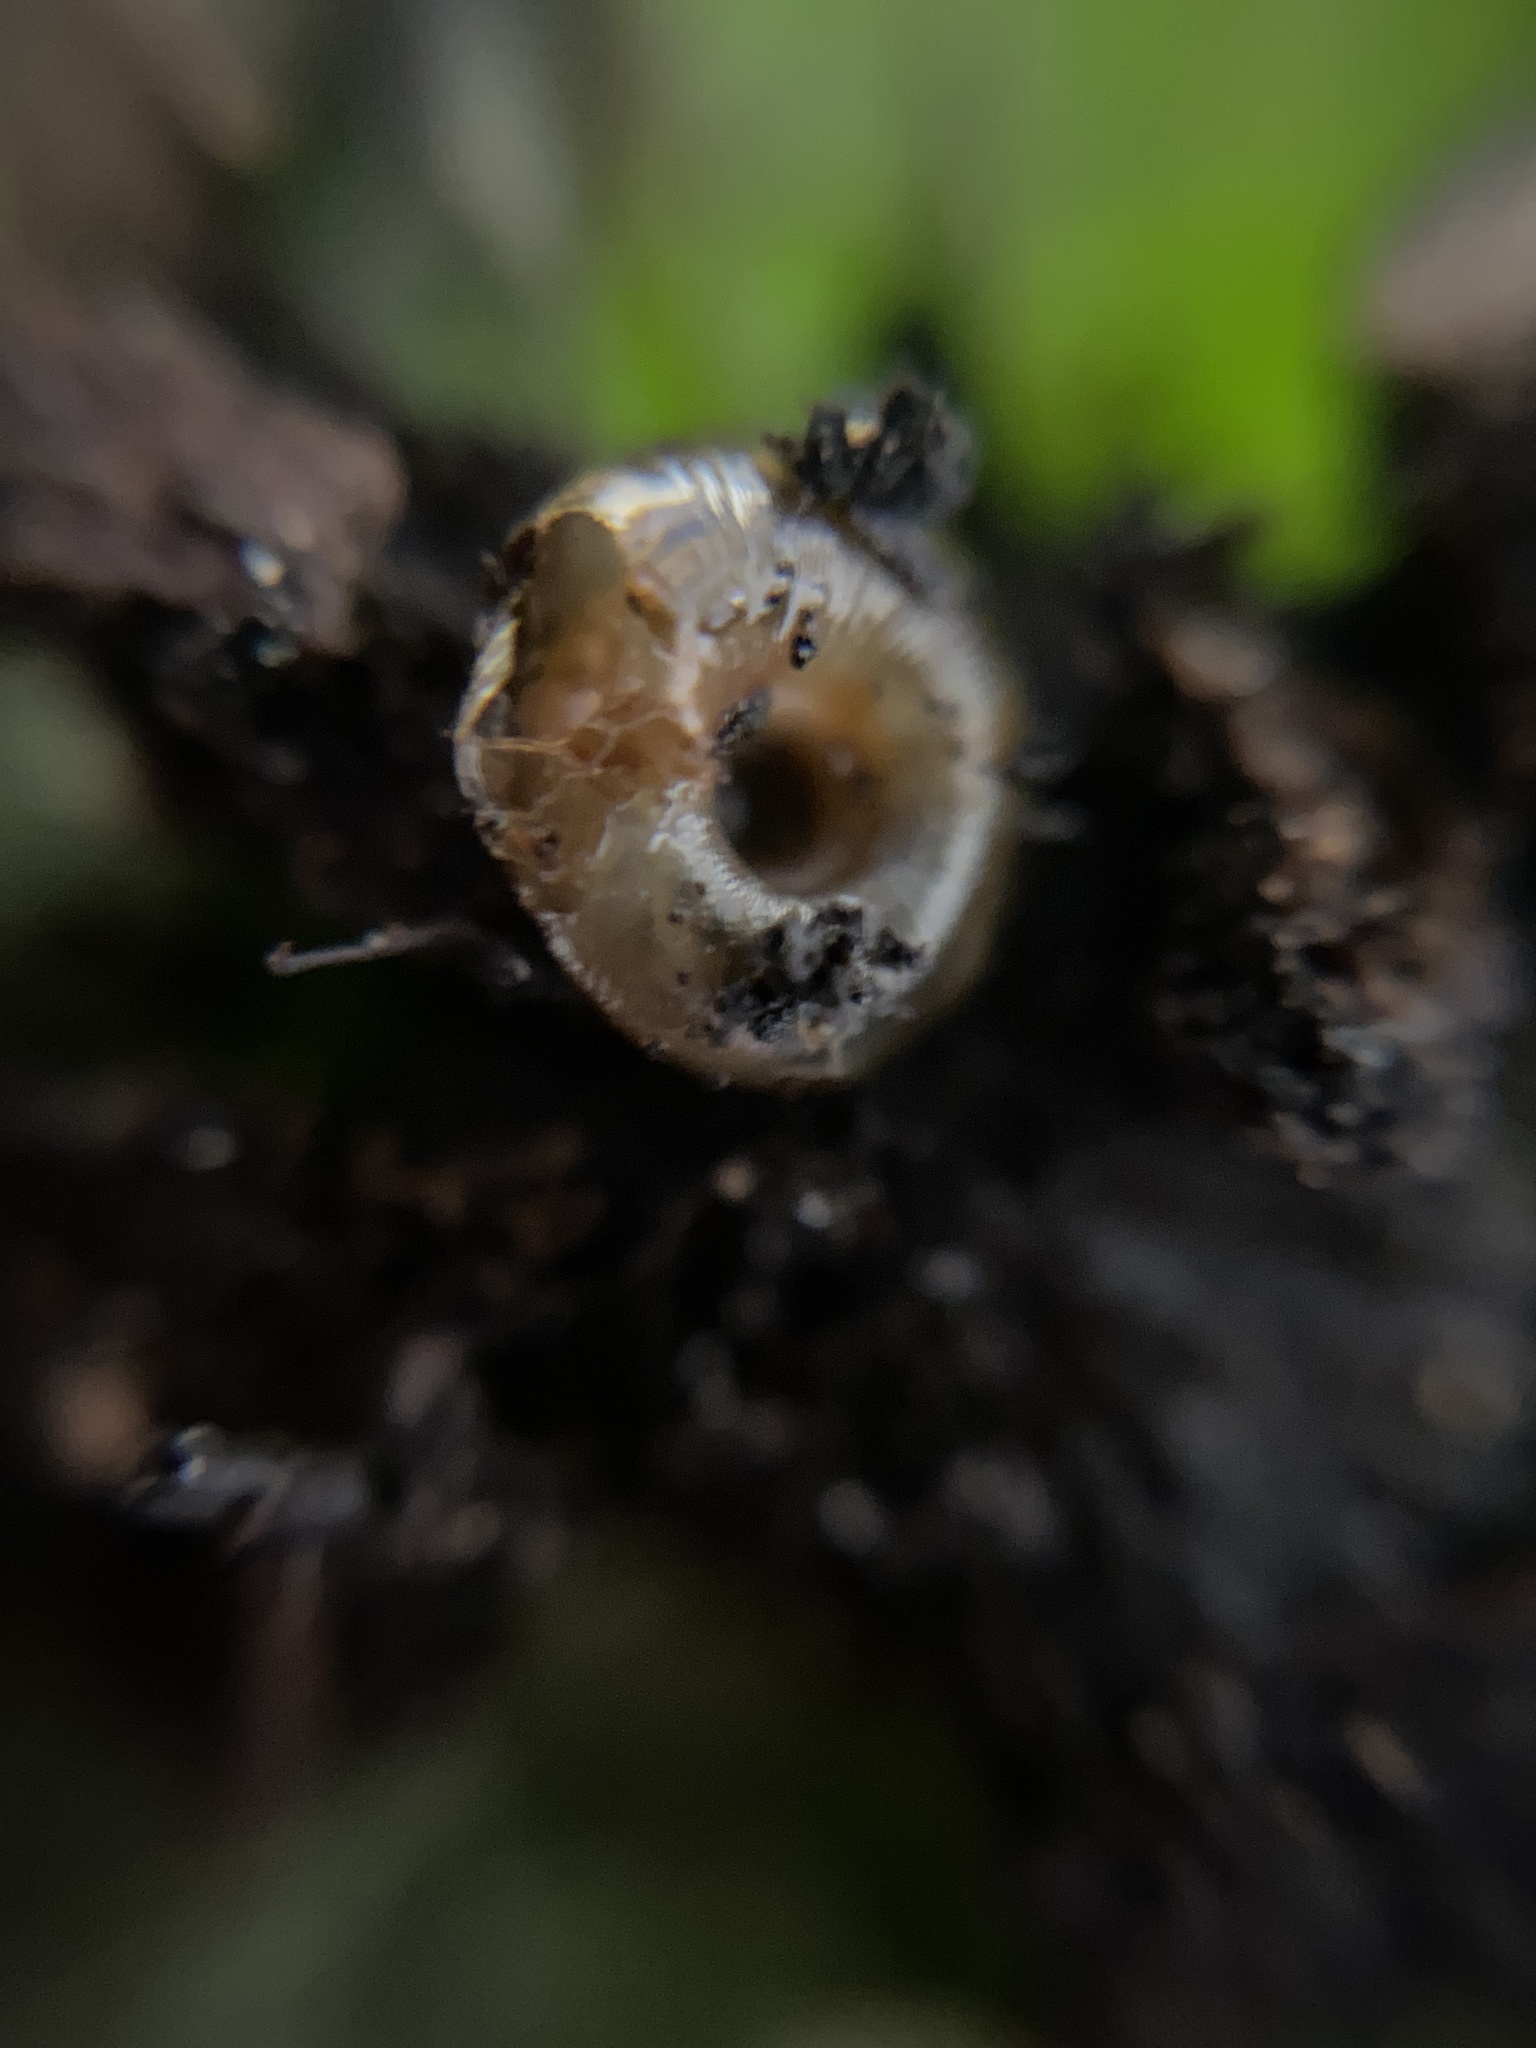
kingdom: Animalia
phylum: Mollusca
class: Gastropoda
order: Stylommatophora
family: Discidae
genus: Discus
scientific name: Discus rotundatus
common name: Rounded snail
